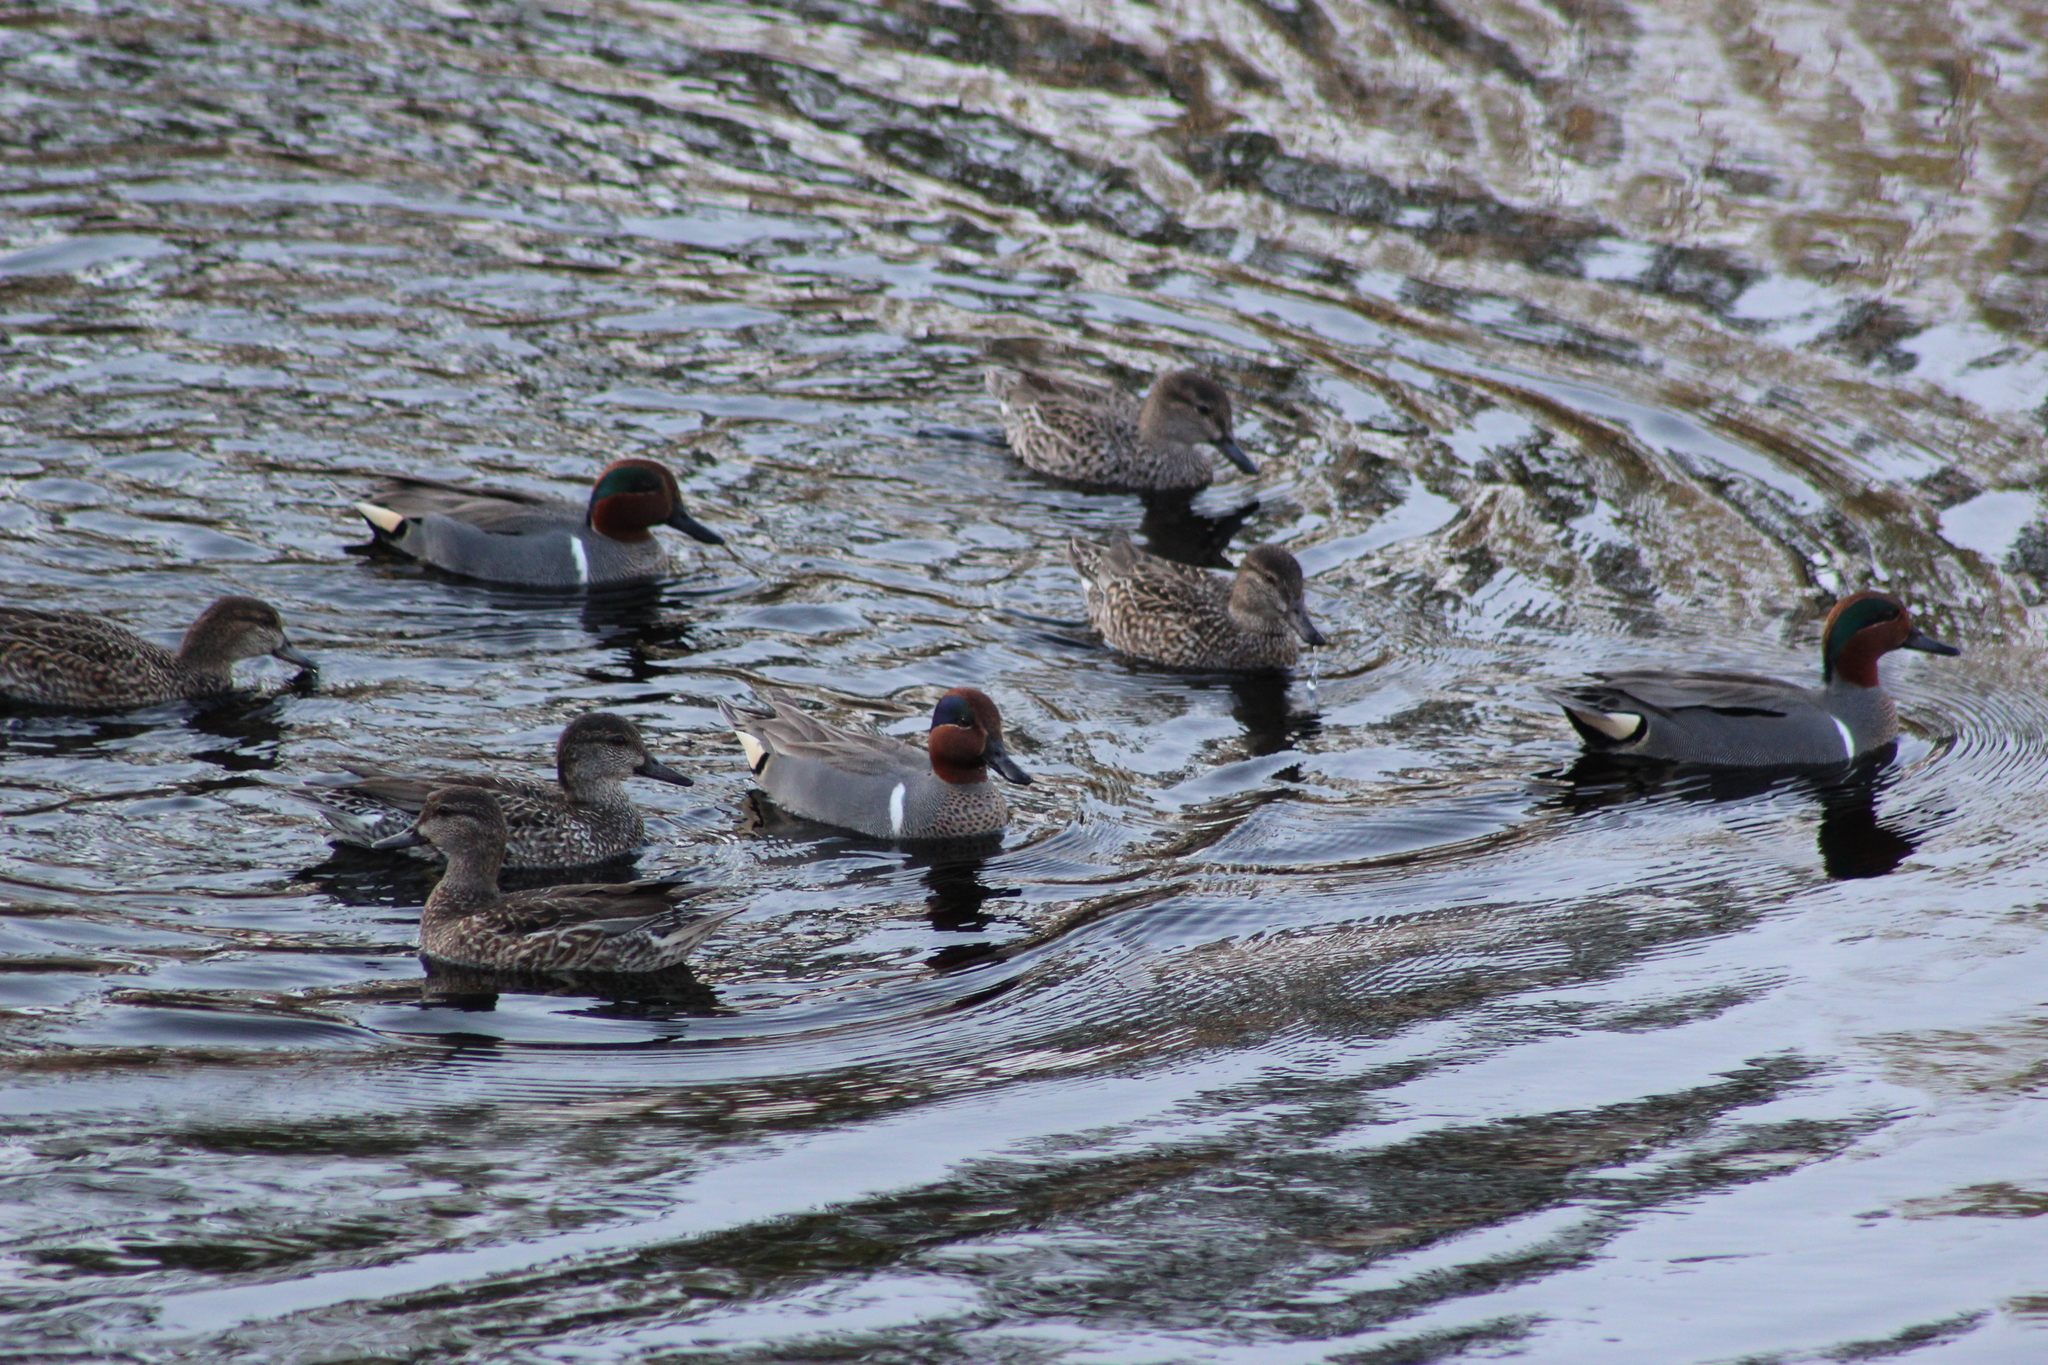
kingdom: Animalia
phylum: Chordata
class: Aves
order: Anseriformes
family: Anatidae
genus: Anas
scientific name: Anas crecca
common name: Eurasian teal
